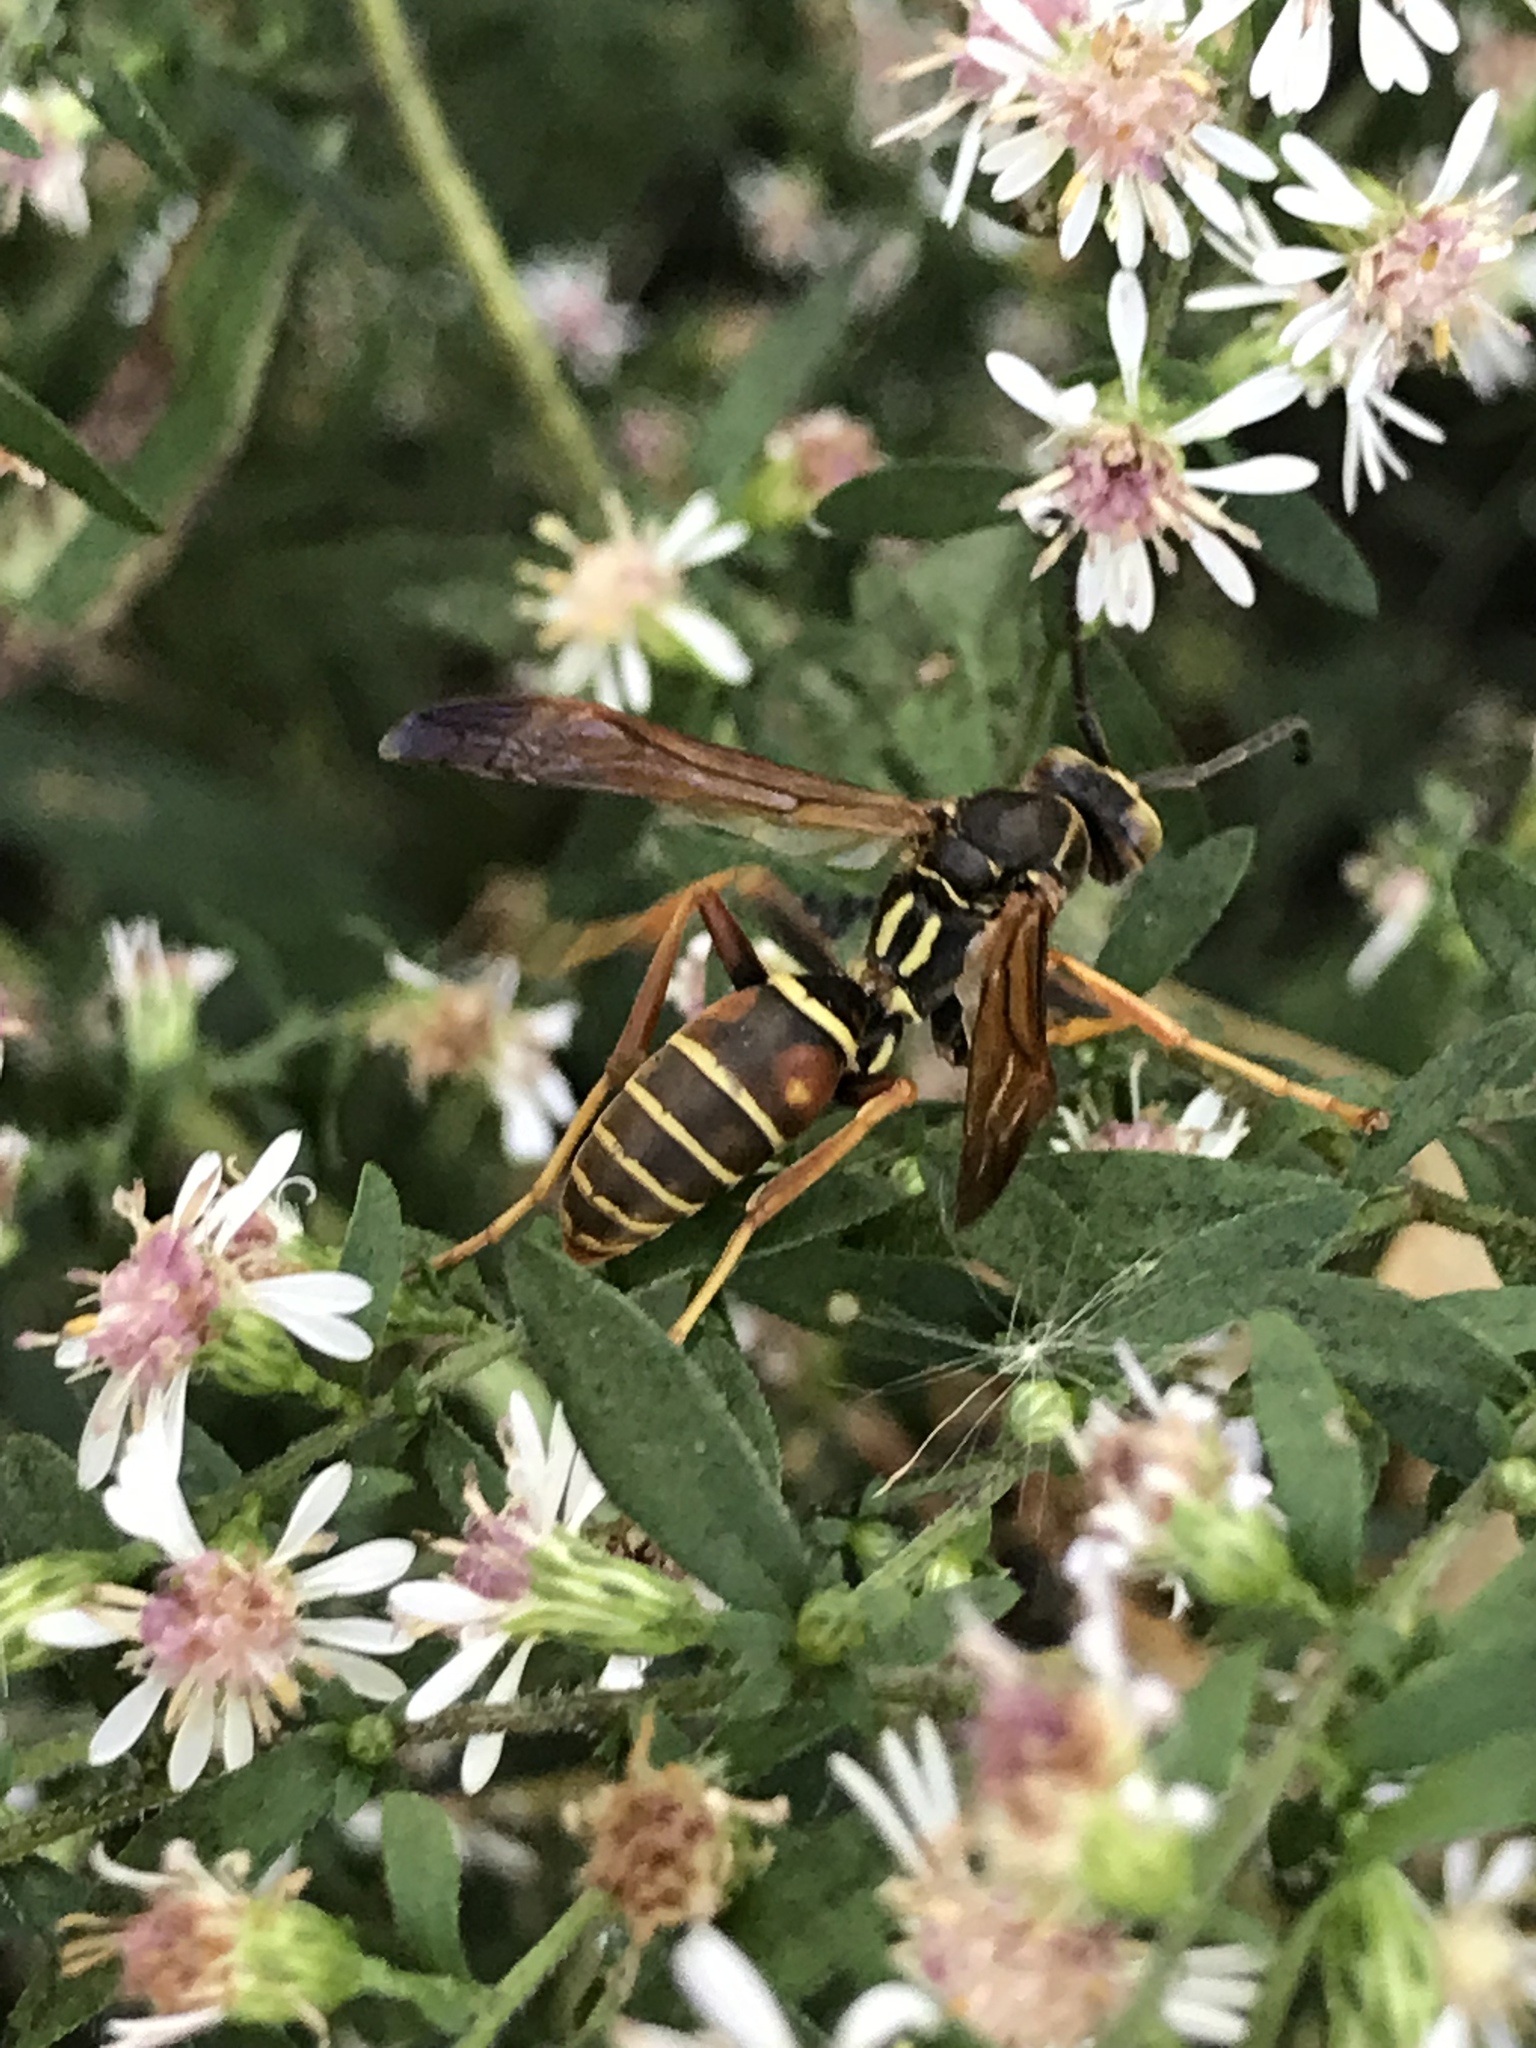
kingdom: Animalia
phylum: Arthropoda
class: Insecta
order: Hymenoptera
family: Eumenidae
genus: Polistes
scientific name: Polistes fuscatus
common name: Dark paper wasp
